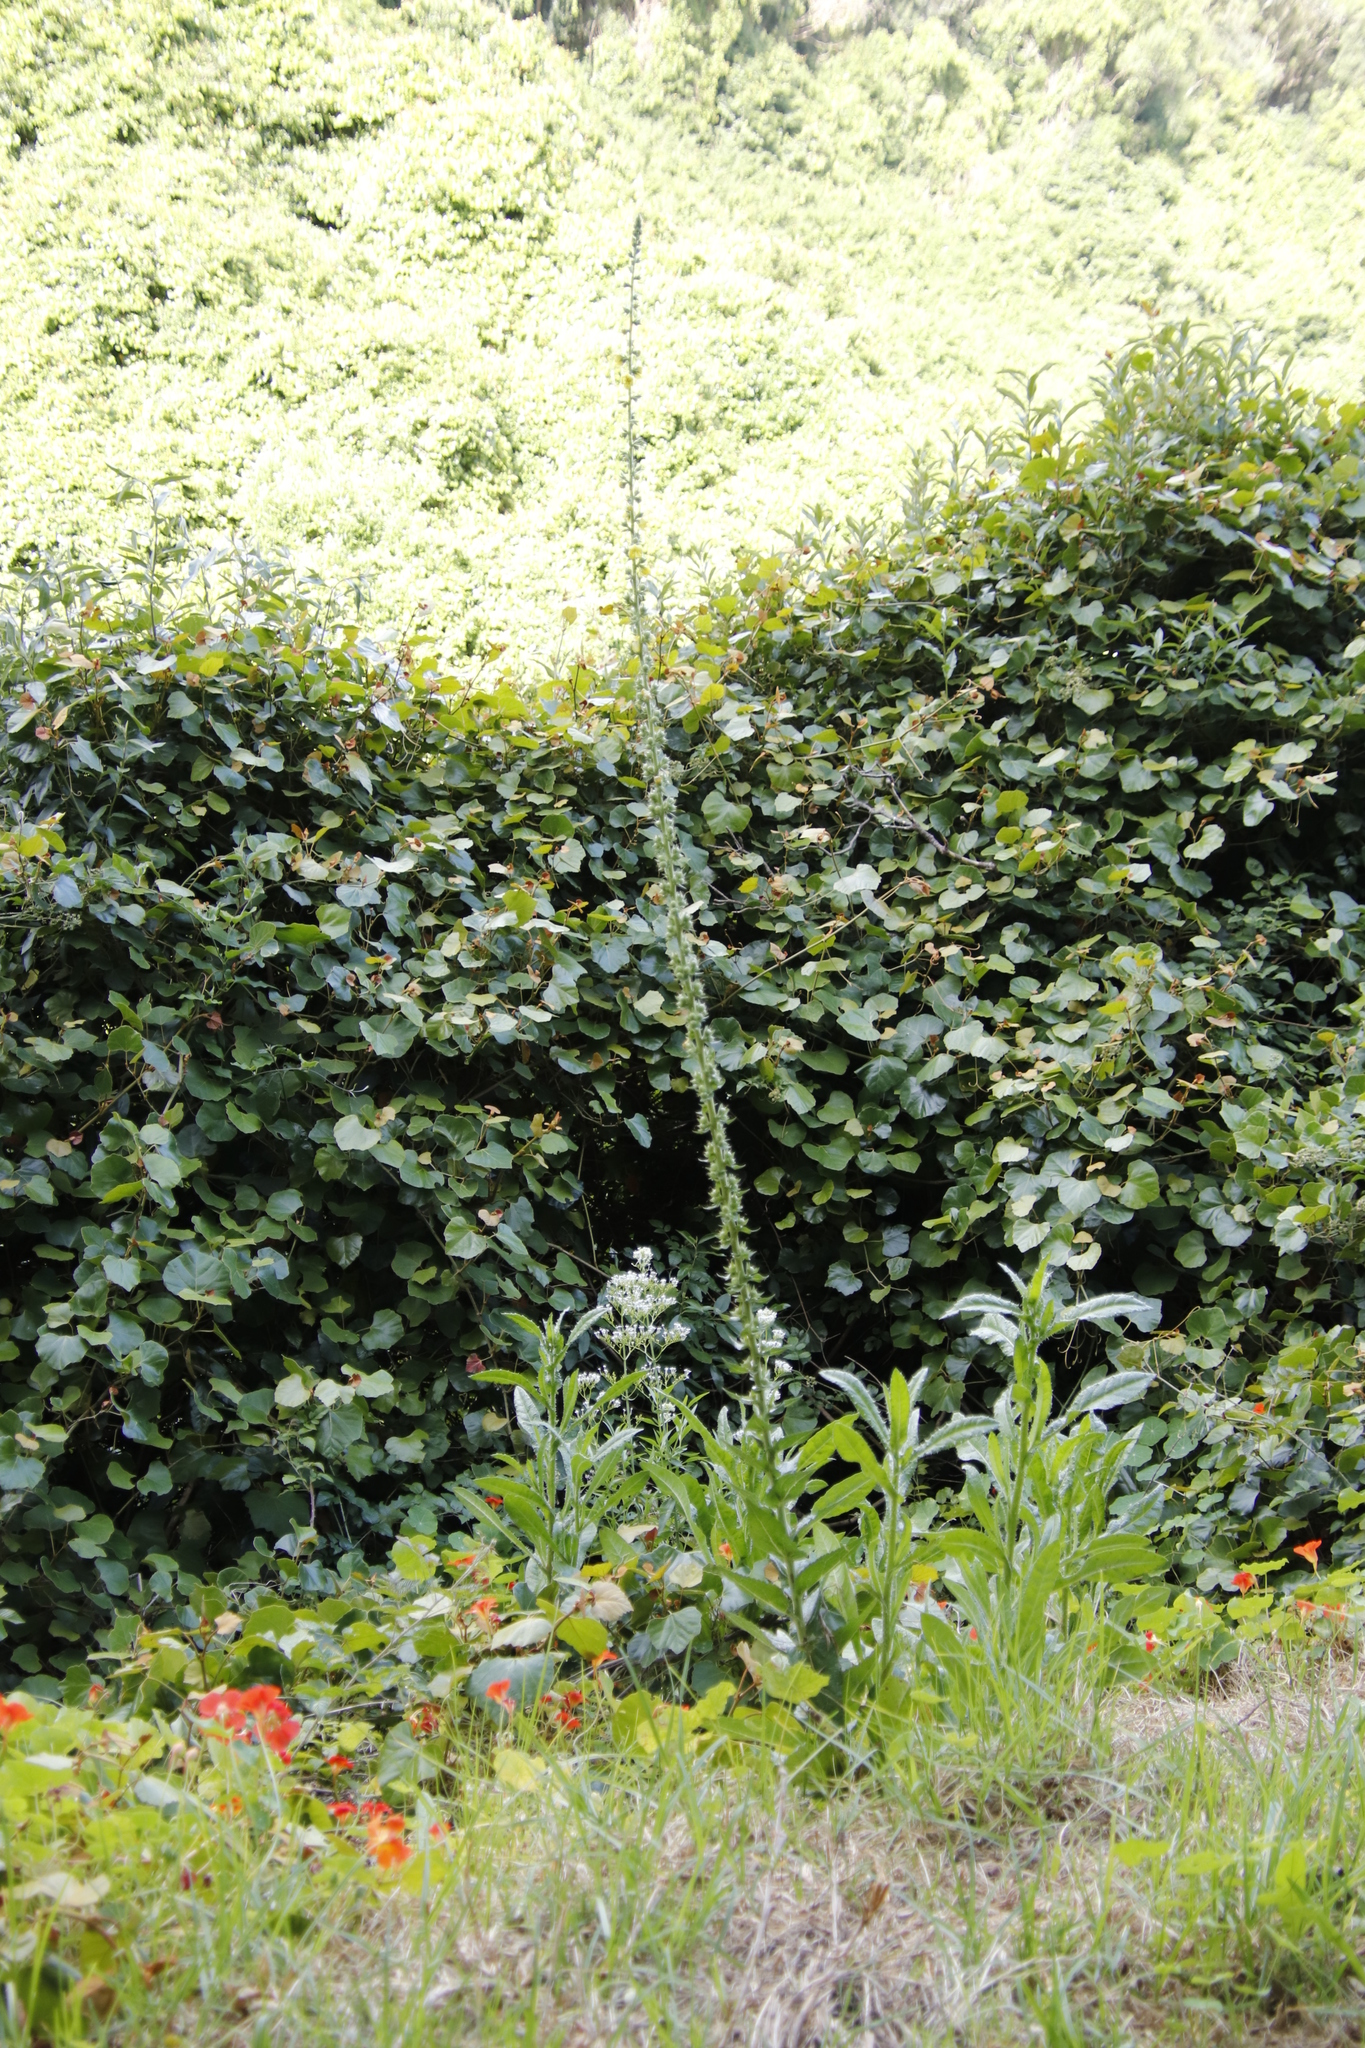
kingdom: Plantae
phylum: Tracheophyta
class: Magnoliopsida
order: Lamiales
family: Scrophulariaceae
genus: Verbascum
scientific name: Verbascum virgatum
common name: Twiggy mullein
